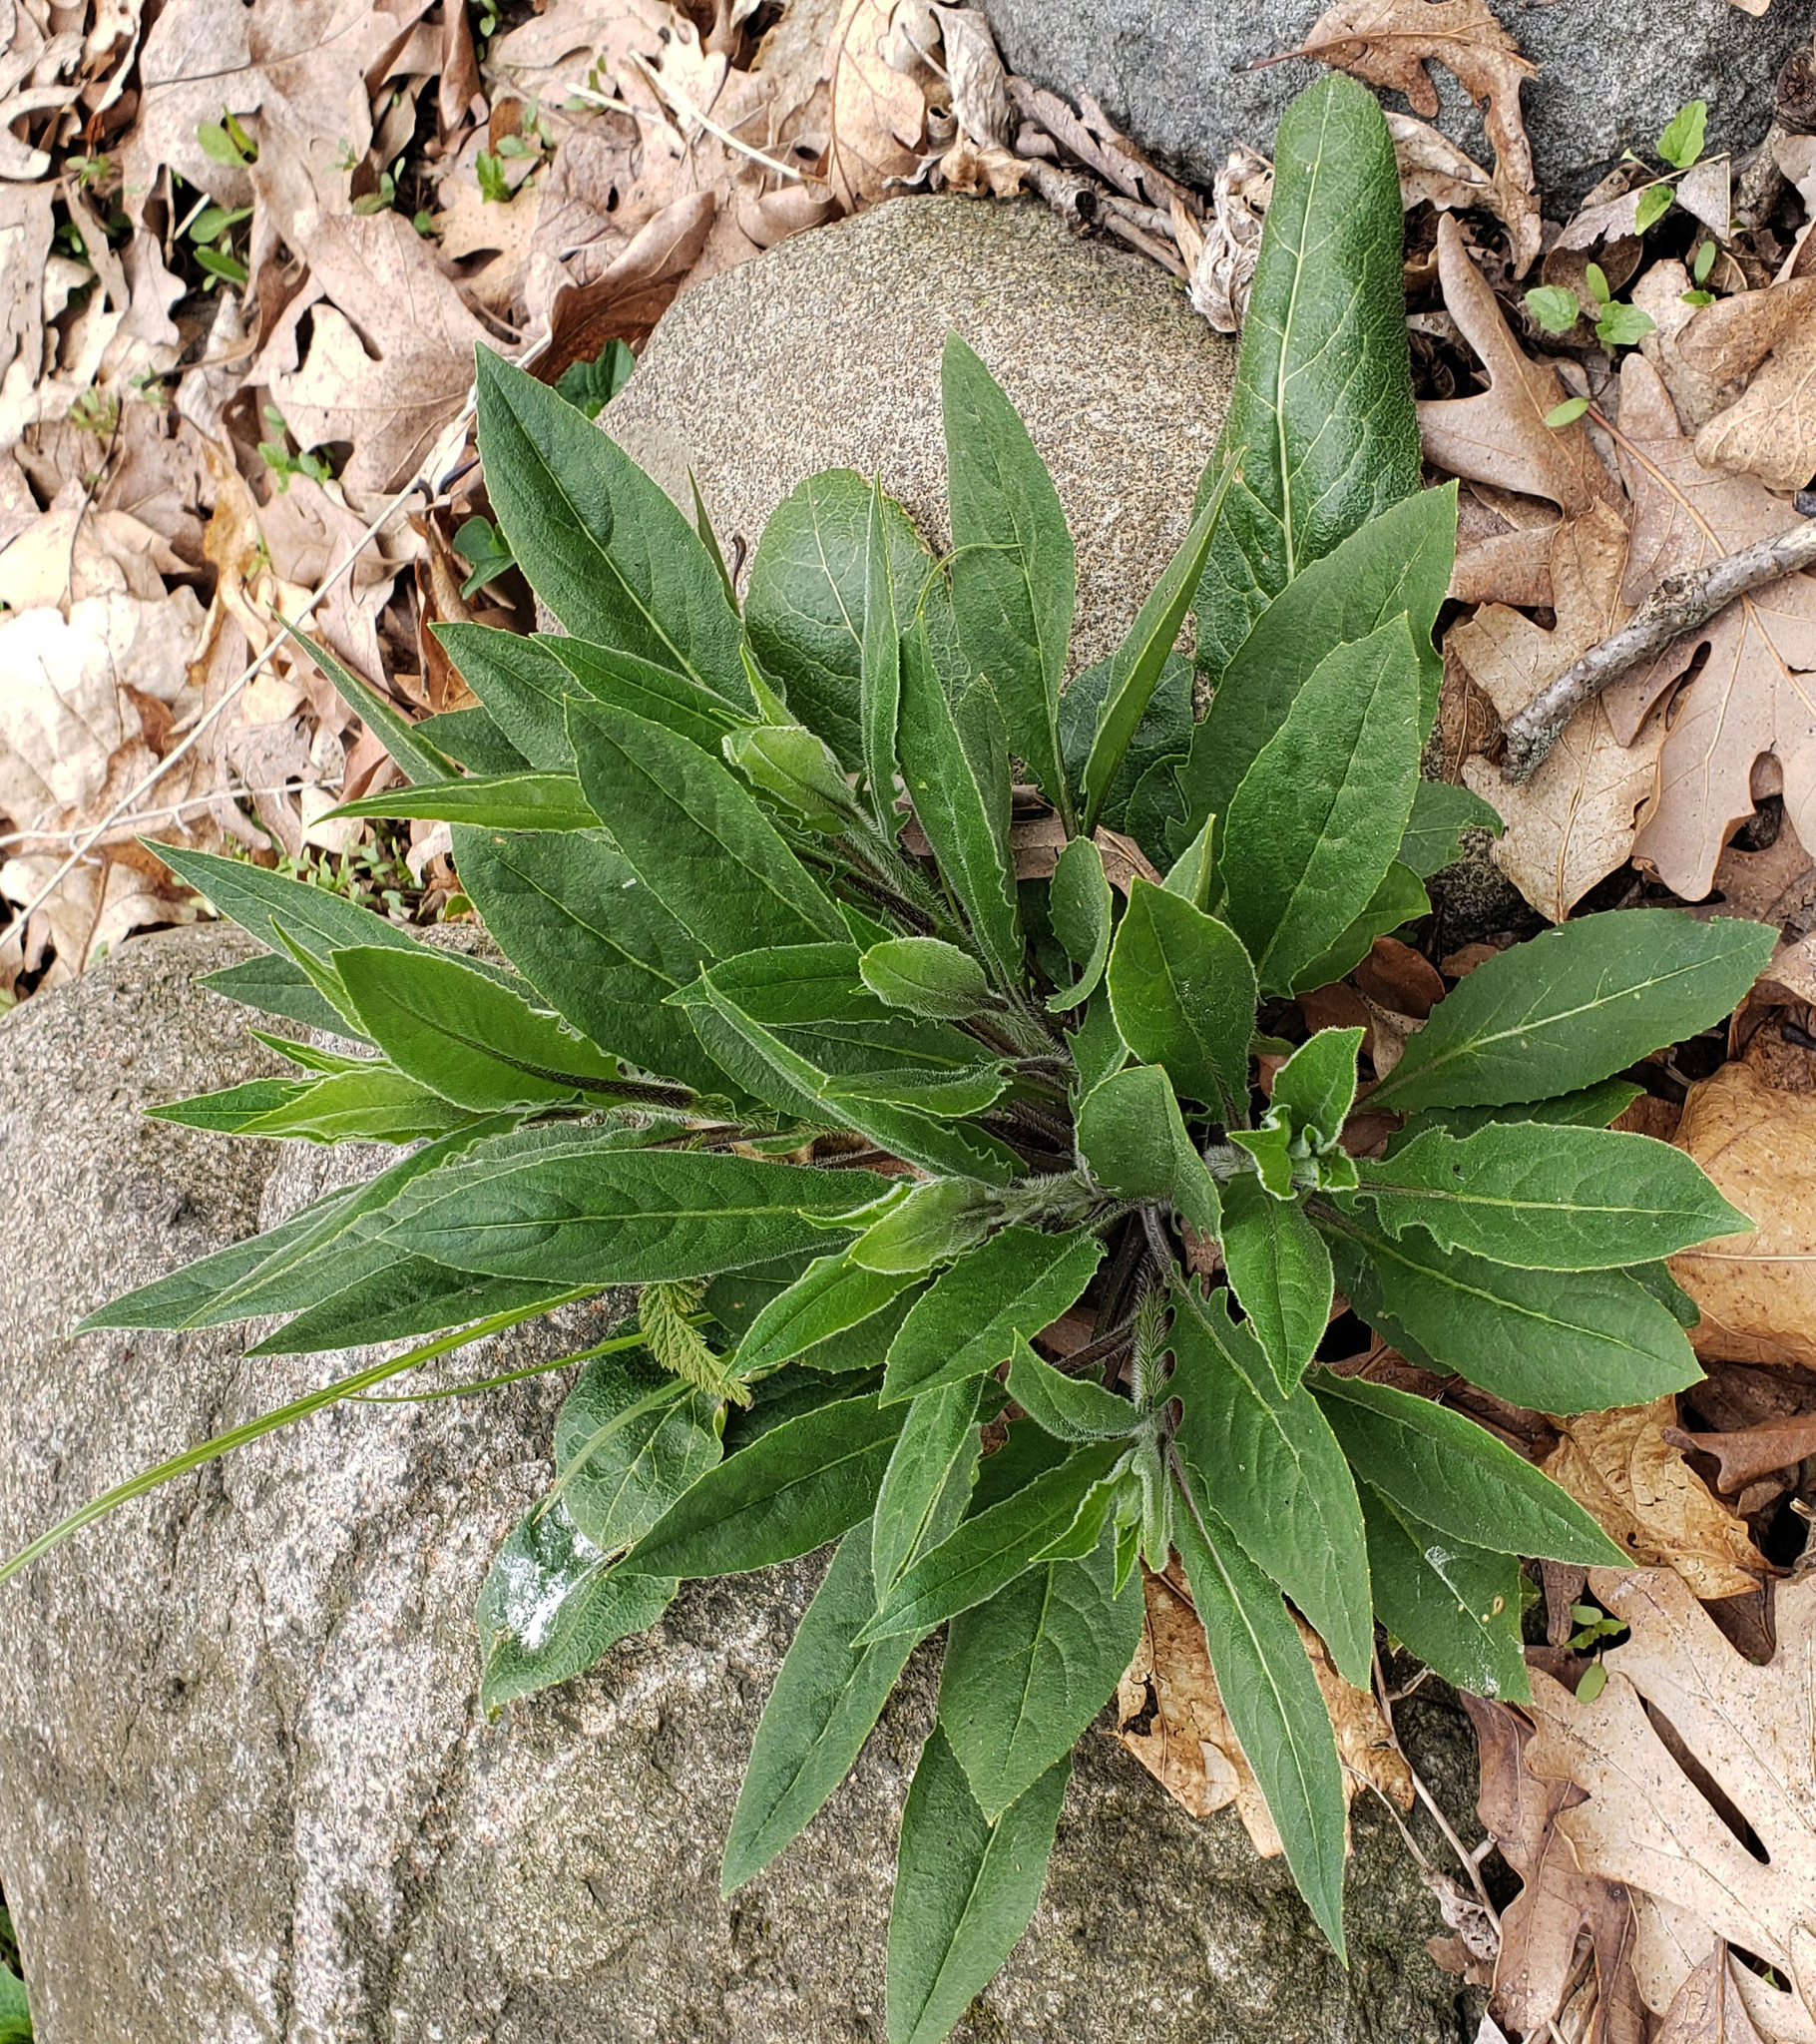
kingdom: Plantae
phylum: Tracheophyta
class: Magnoliopsida
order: Brassicales
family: Brassicaceae
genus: Hesperis
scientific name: Hesperis matronalis
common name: Dame's-violet
